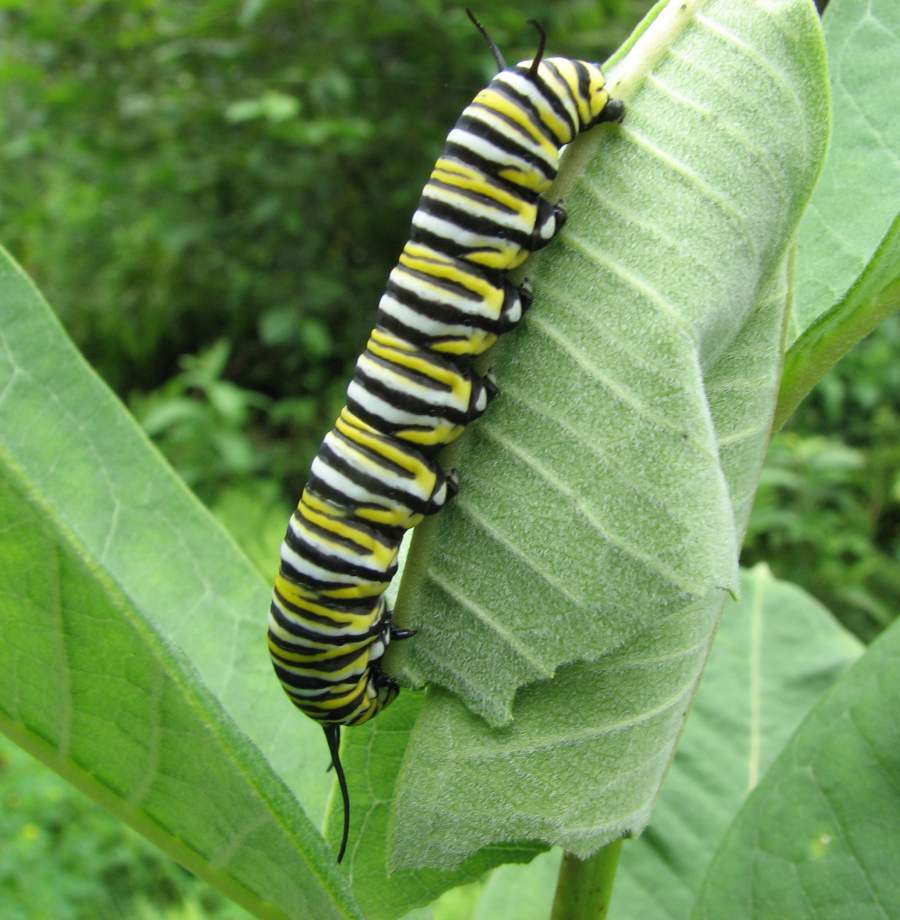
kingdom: Animalia
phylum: Arthropoda
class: Insecta
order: Lepidoptera
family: Nymphalidae
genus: Danaus
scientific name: Danaus plexippus
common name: Monarch
